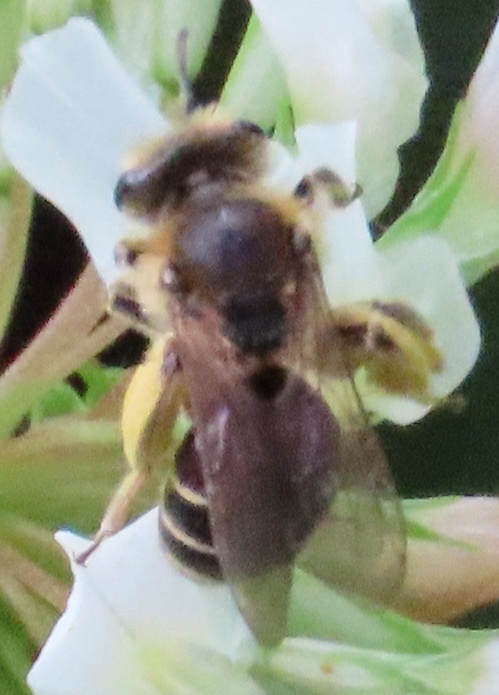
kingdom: Animalia
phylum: Arthropoda
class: Insecta
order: Hymenoptera
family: Andrenidae
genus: Andrena
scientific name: Andrena wilkella
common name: Wilke's mining bee
